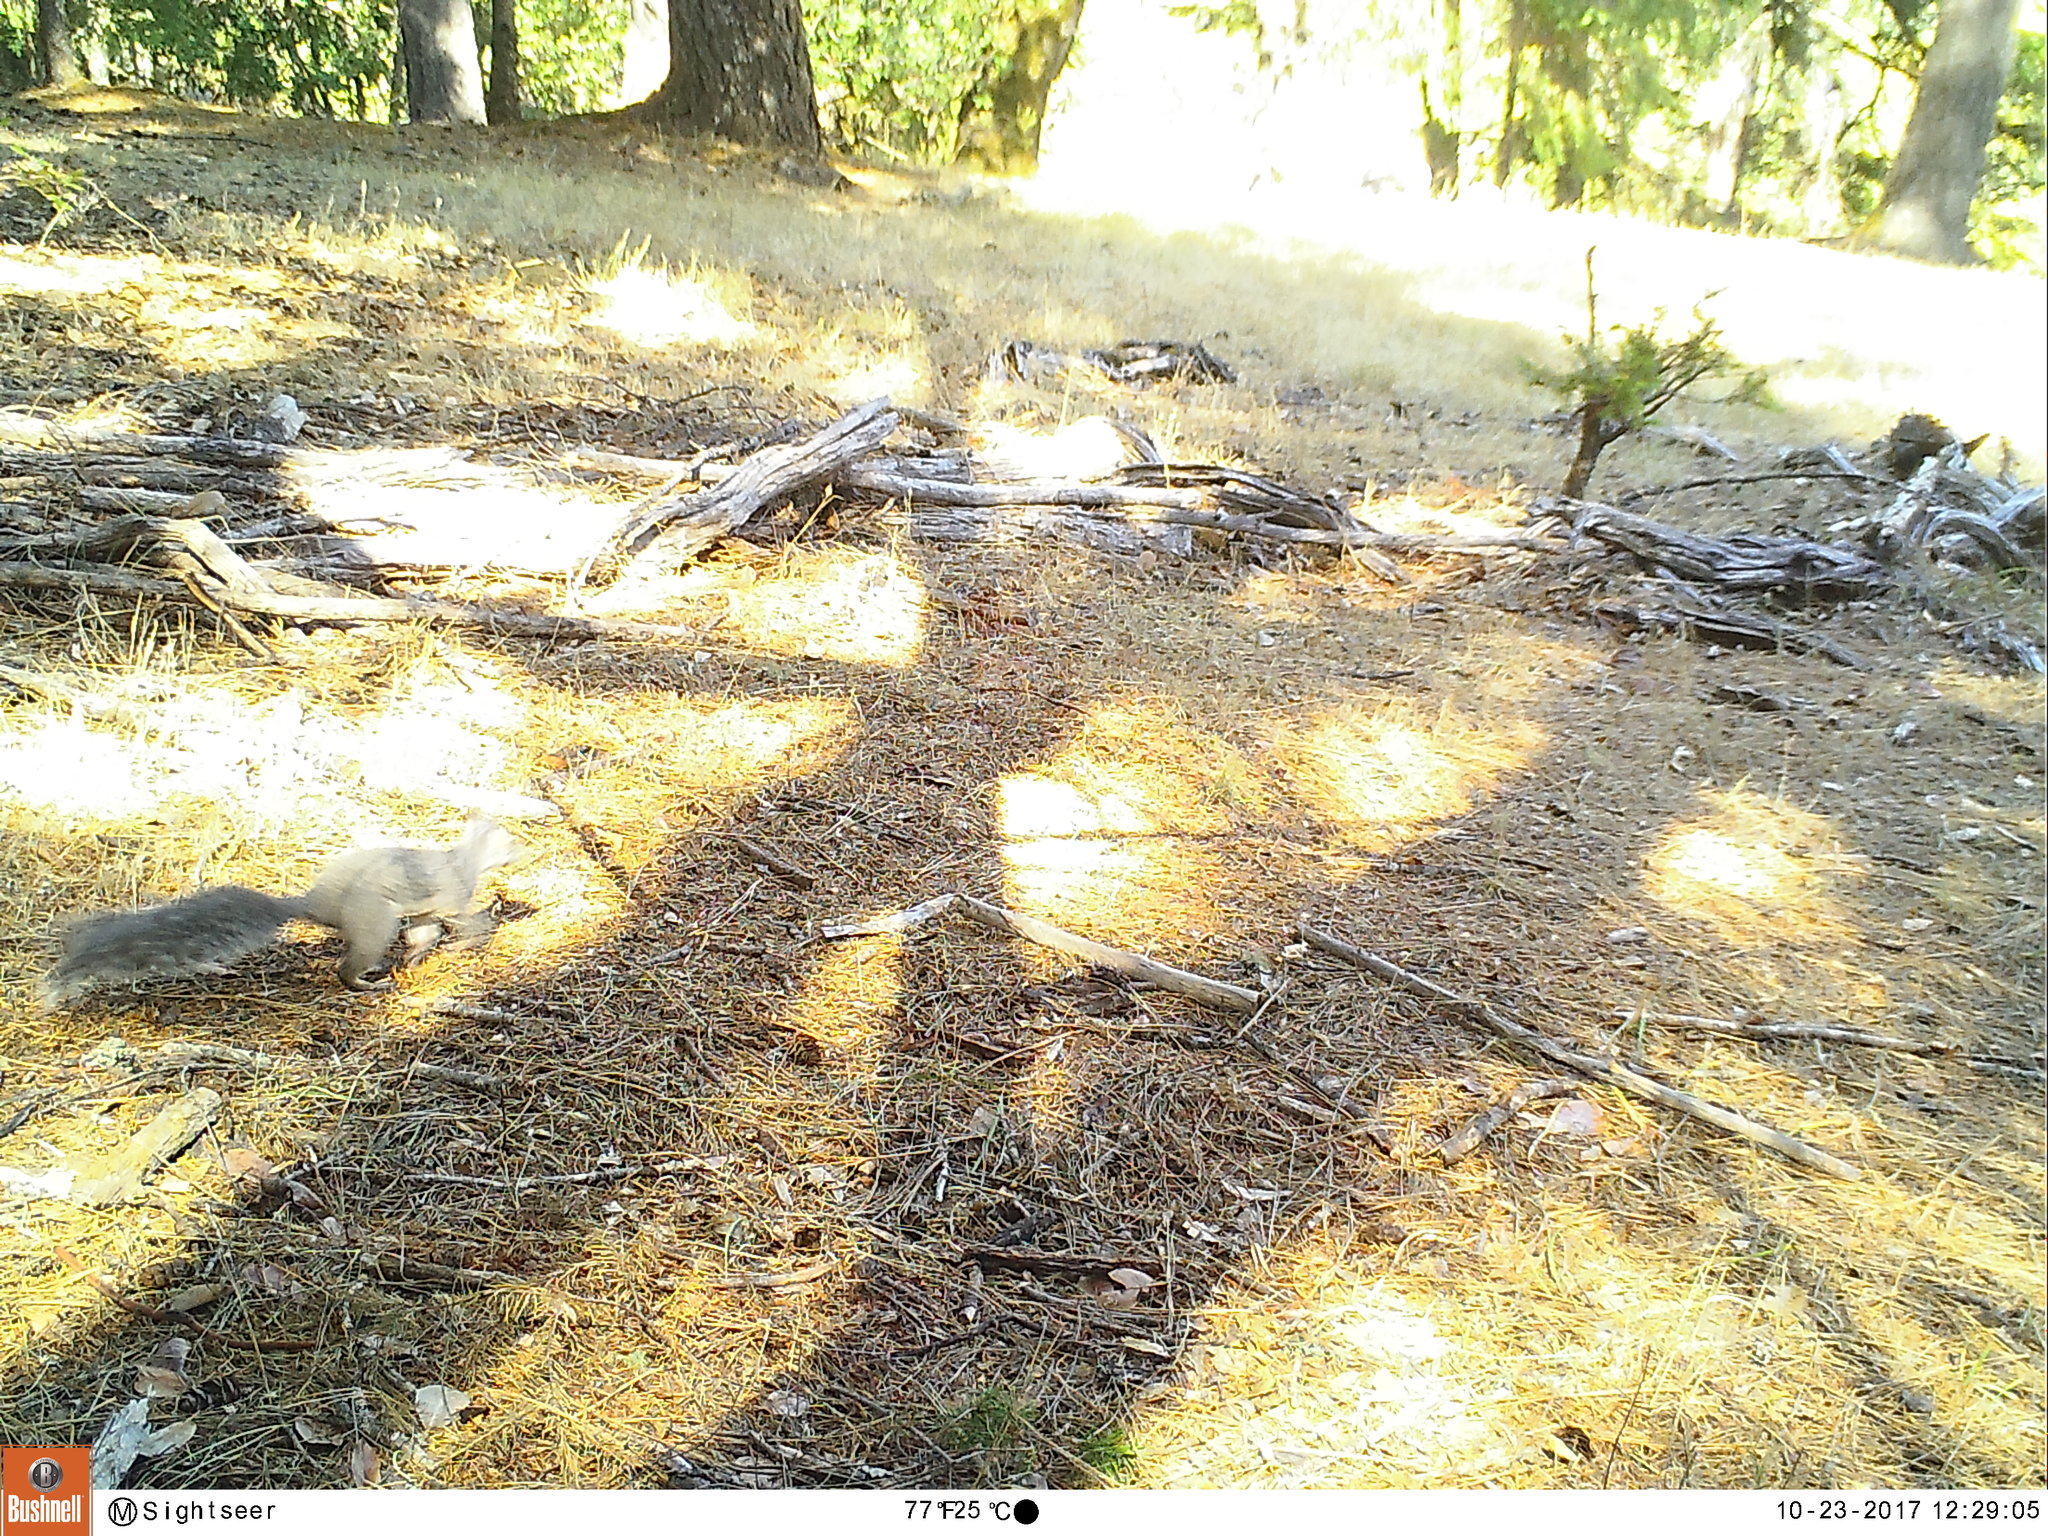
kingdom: Animalia
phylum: Chordata
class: Mammalia
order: Rodentia
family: Sciuridae
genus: Sciurus
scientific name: Sciurus griseus
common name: Western gray squirrel
